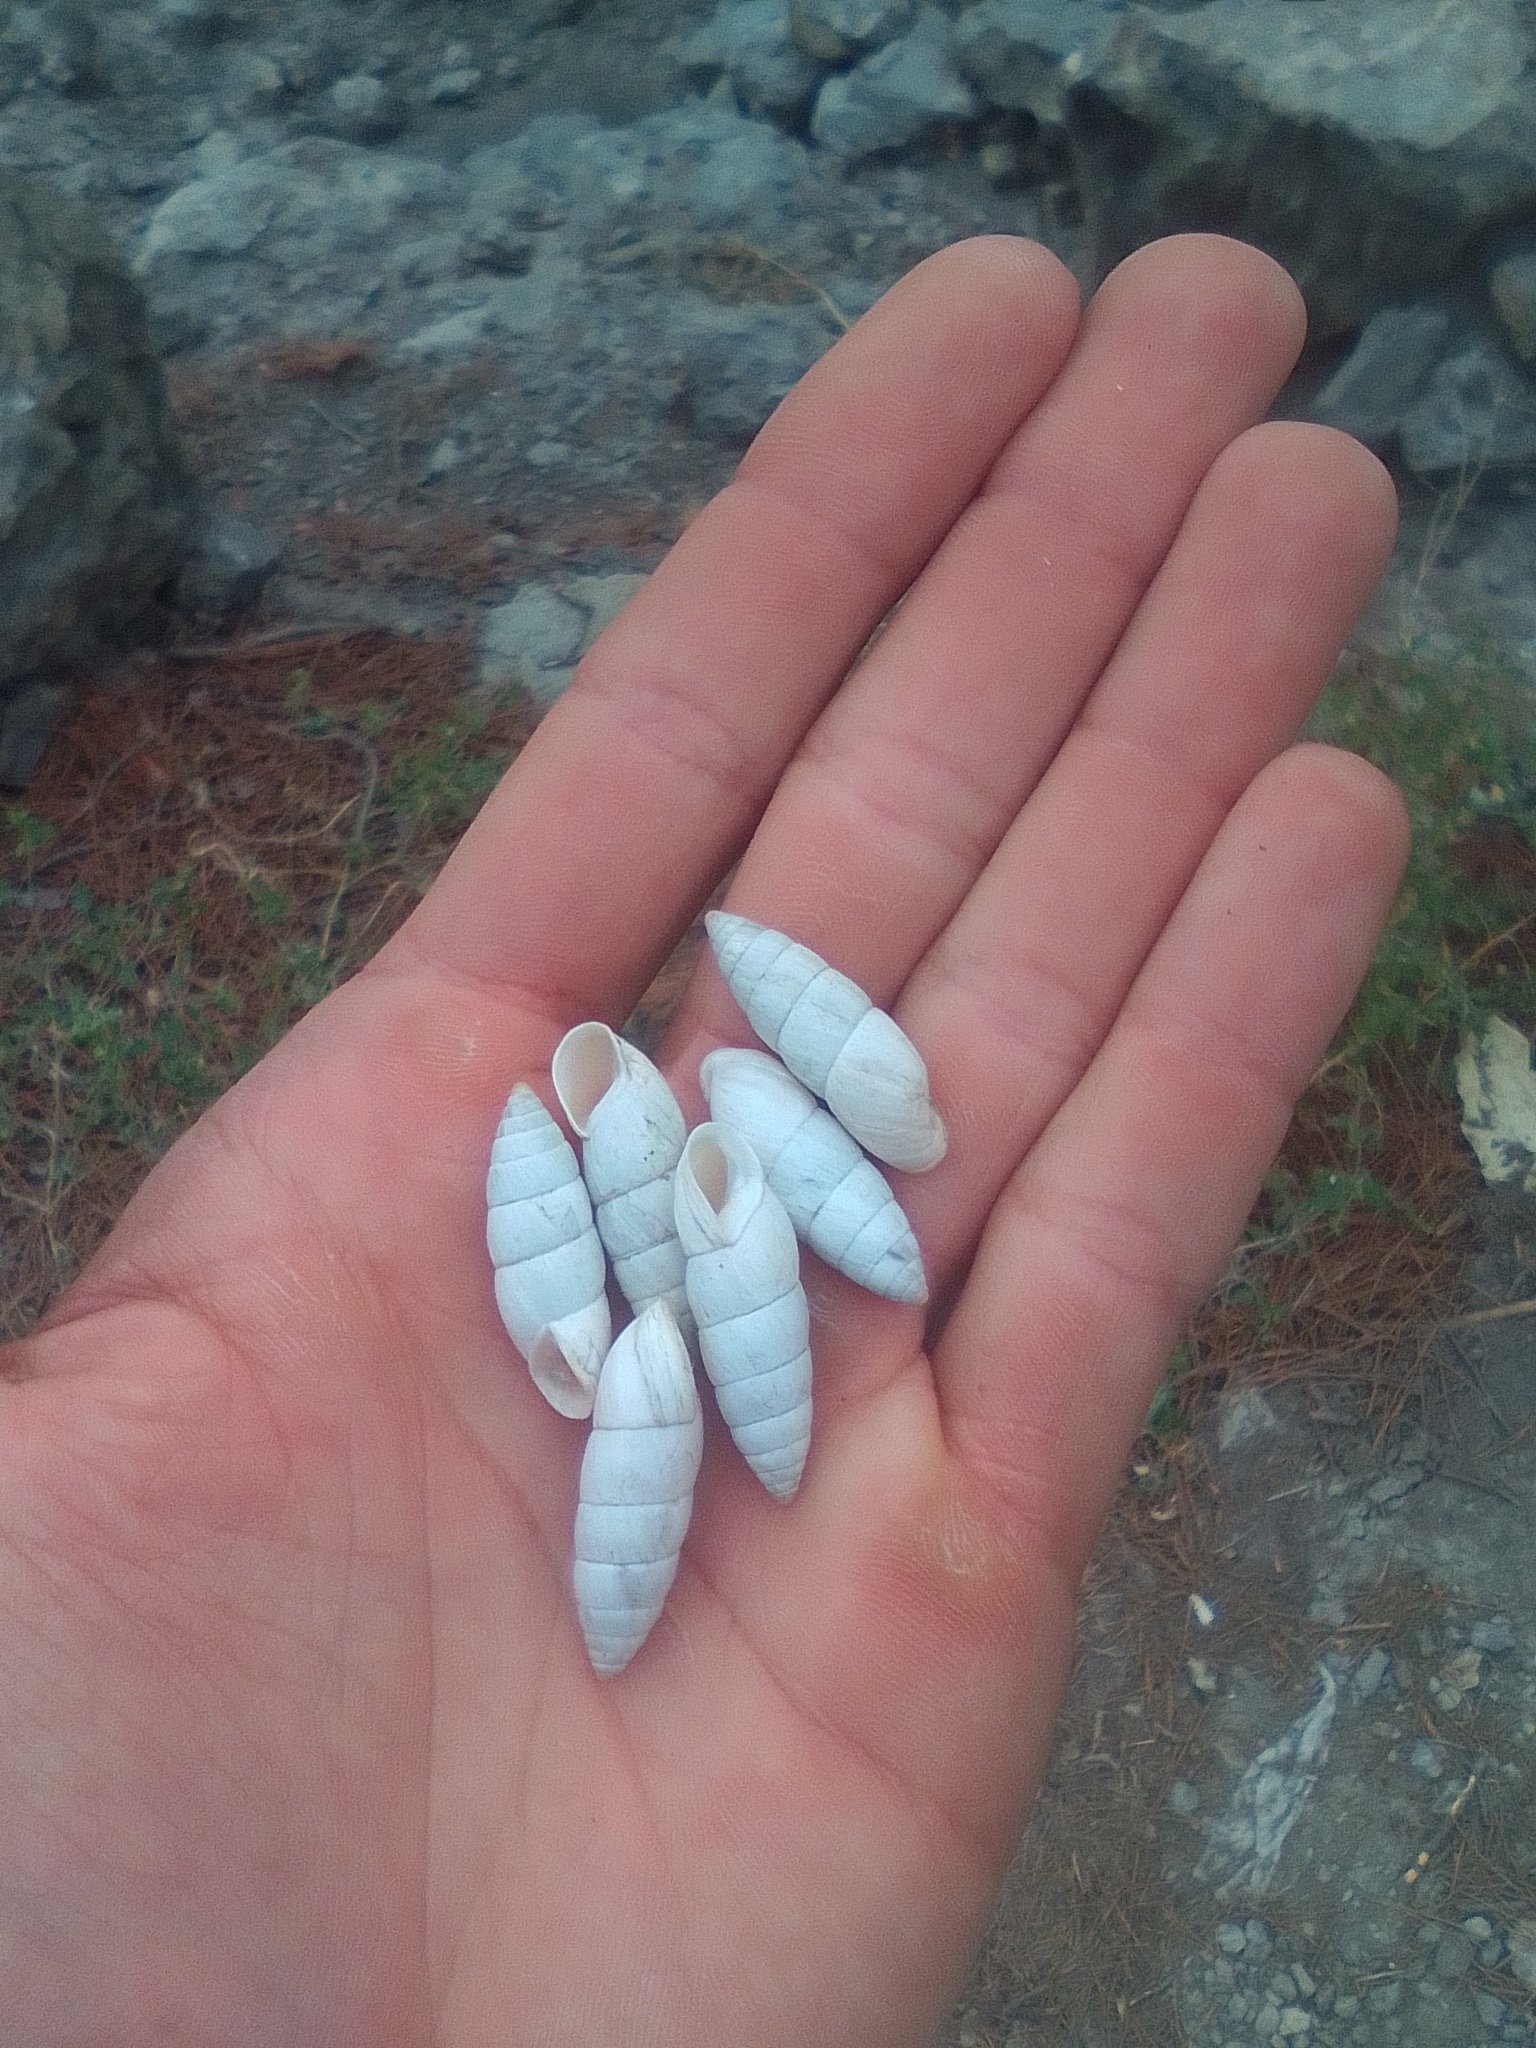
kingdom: Animalia
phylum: Mollusca
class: Gastropoda
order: Stylommatophora
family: Enidae
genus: Brephulopsis
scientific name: Brephulopsis cylindrica
